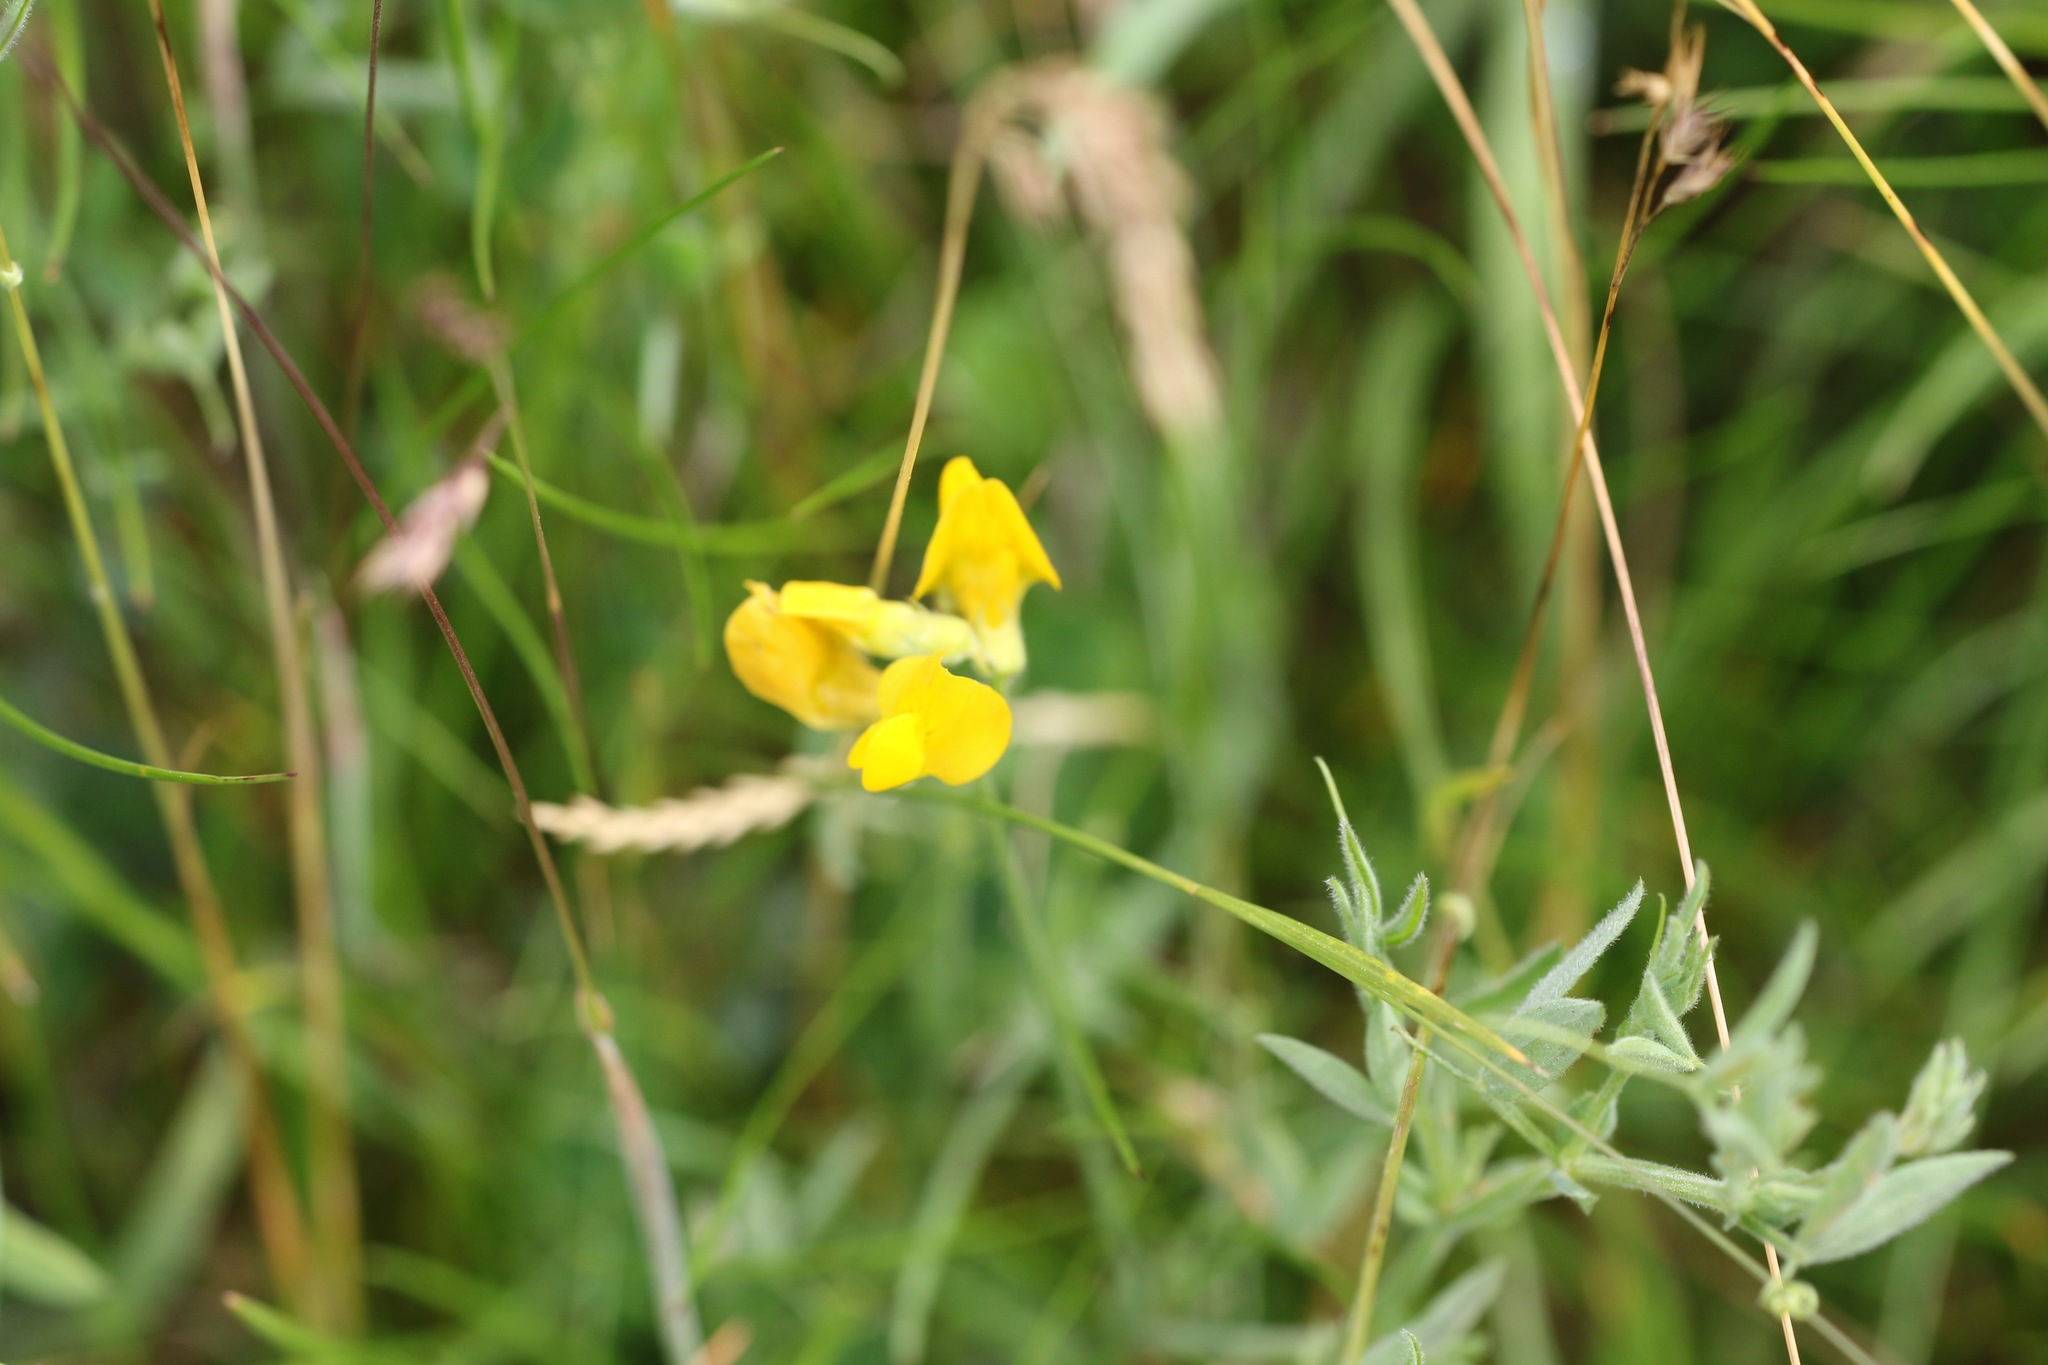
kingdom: Plantae
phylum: Tracheophyta
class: Magnoliopsida
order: Fabales
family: Fabaceae
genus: Lathyrus
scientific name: Lathyrus pratensis
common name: Meadow vetchling
